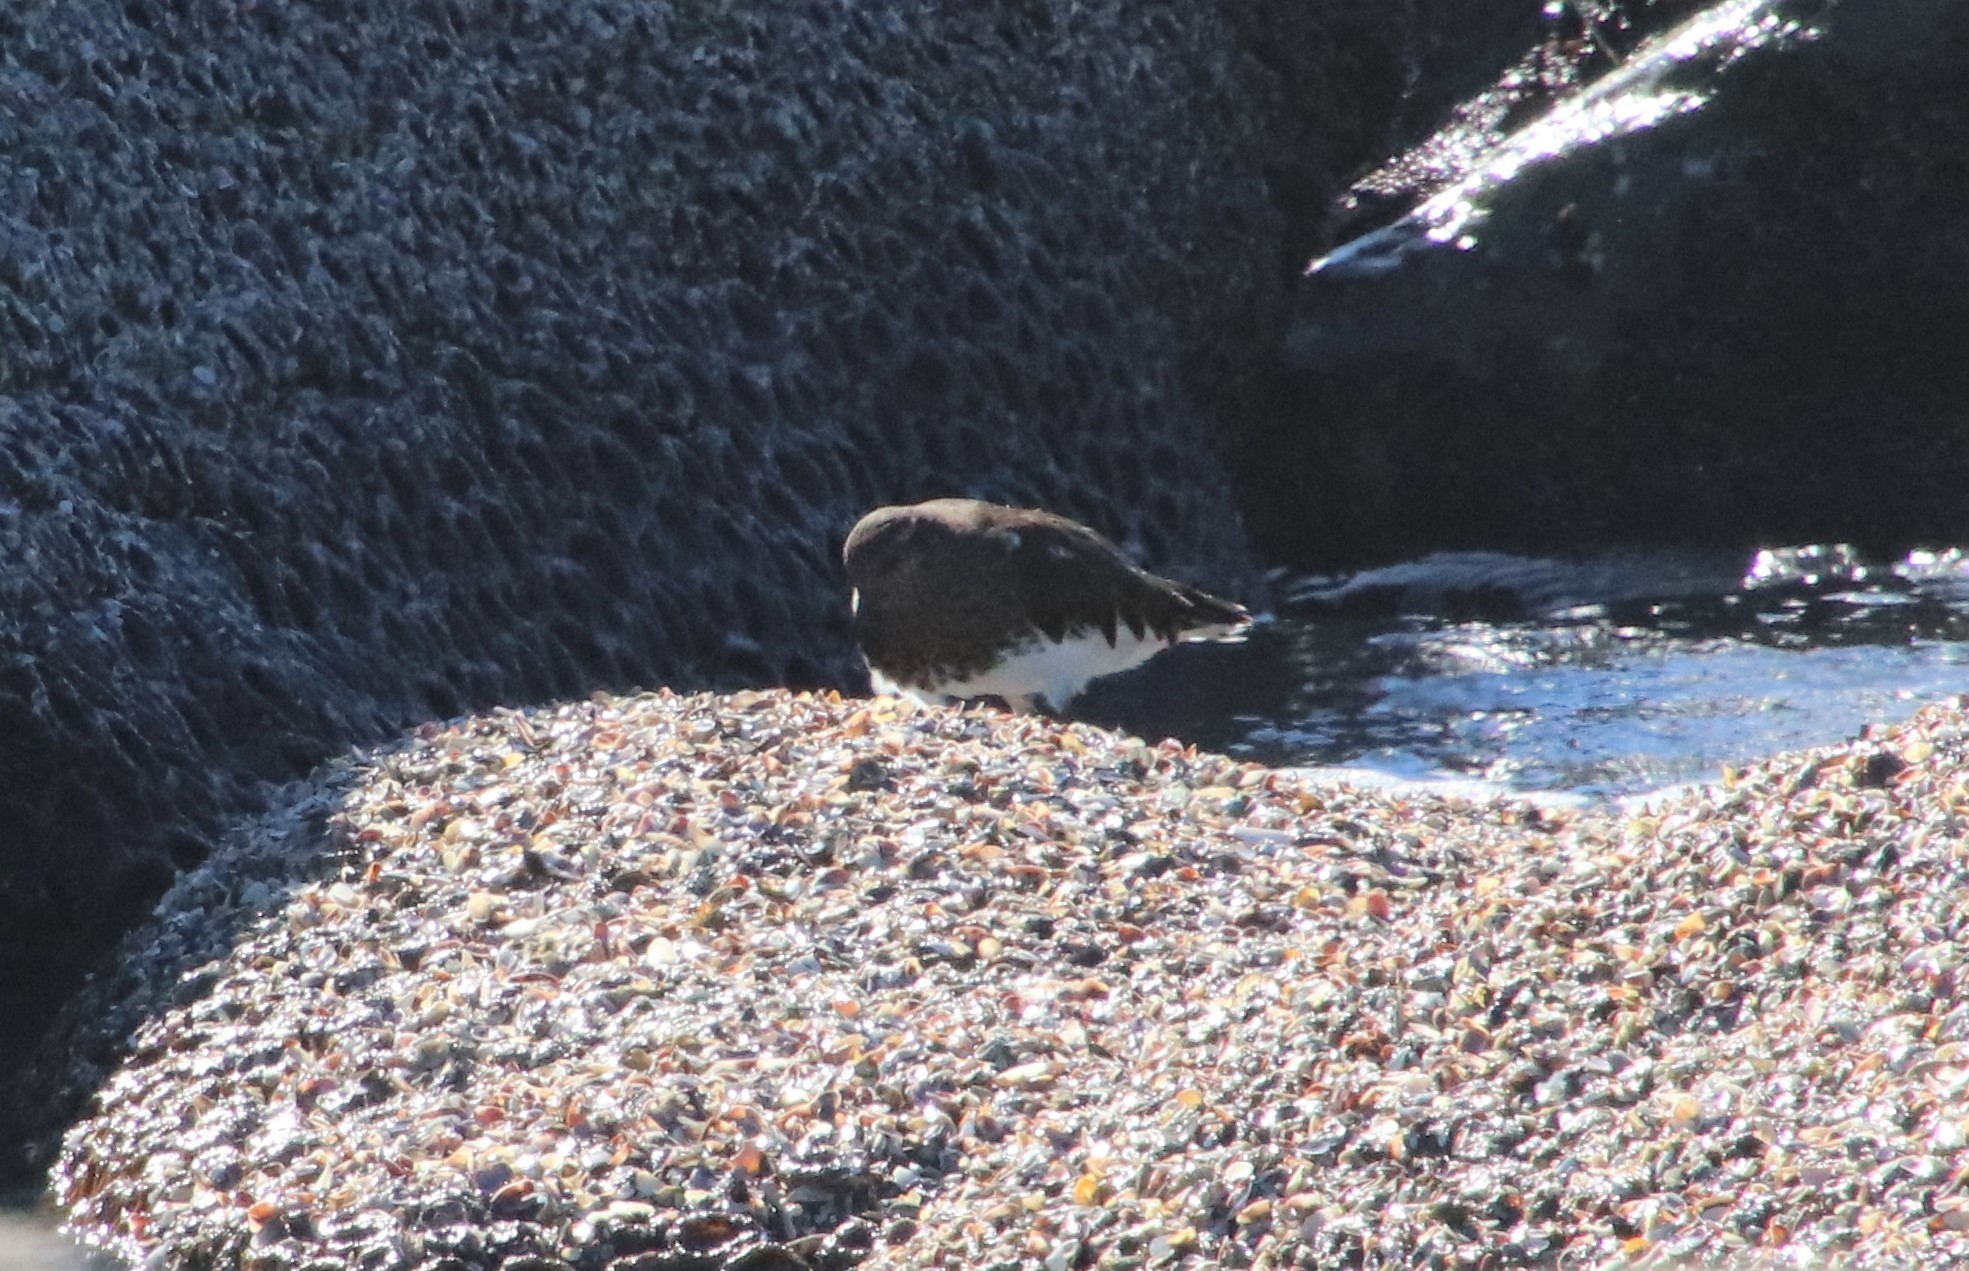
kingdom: Animalia
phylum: Chordata
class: Aves
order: Charadriiformes
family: Scolopacidae
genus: Arenaria
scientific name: Arenaria melanocephala
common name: Black turnstone
